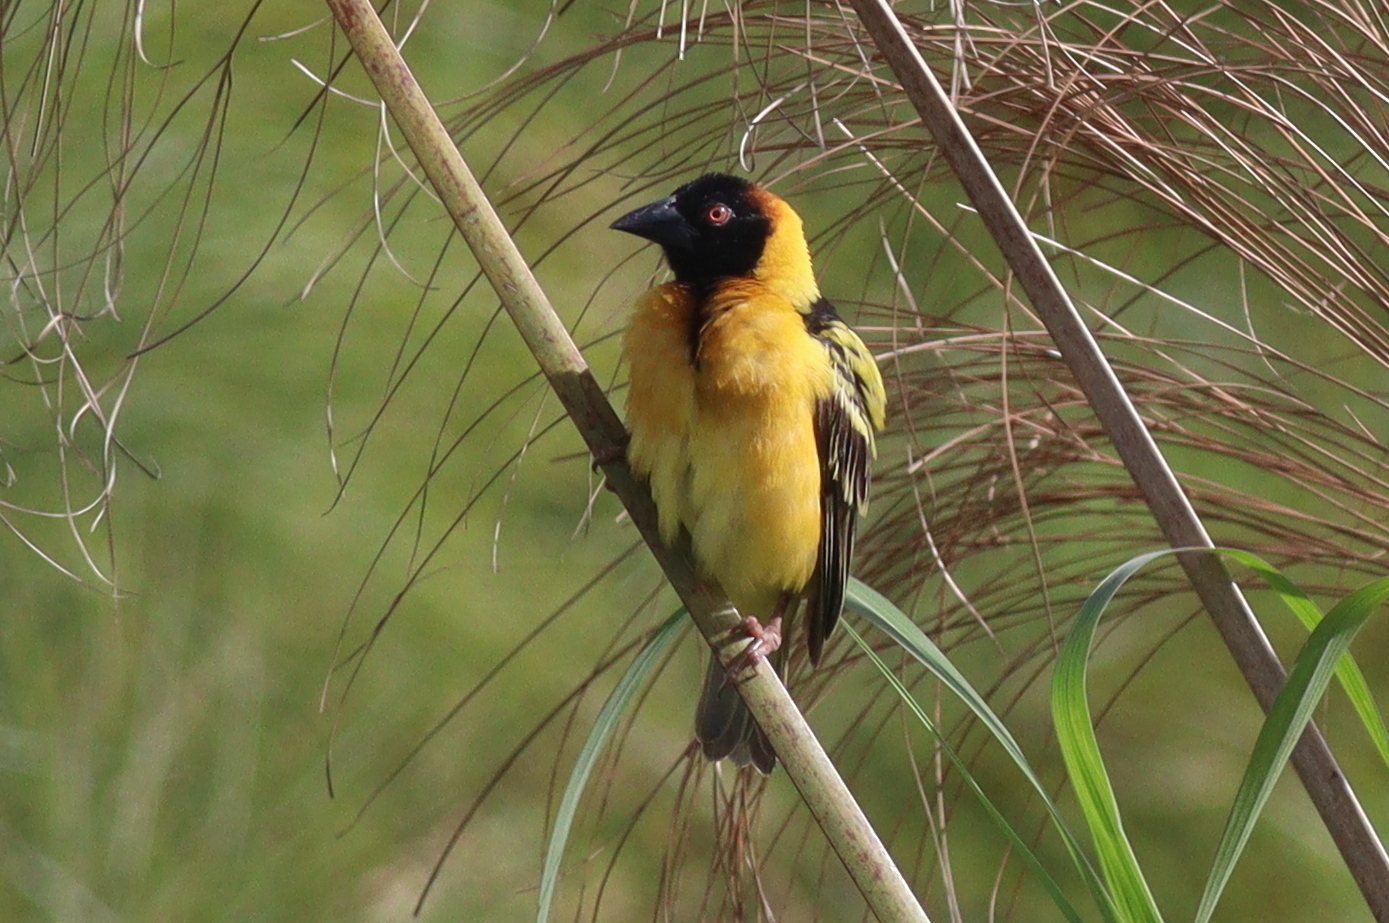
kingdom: Animalia
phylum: Chordata
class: Aves
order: Passeriformes
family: Ploceidae
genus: Ploceus
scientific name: Ploceus cucullatus
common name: Village weaver
